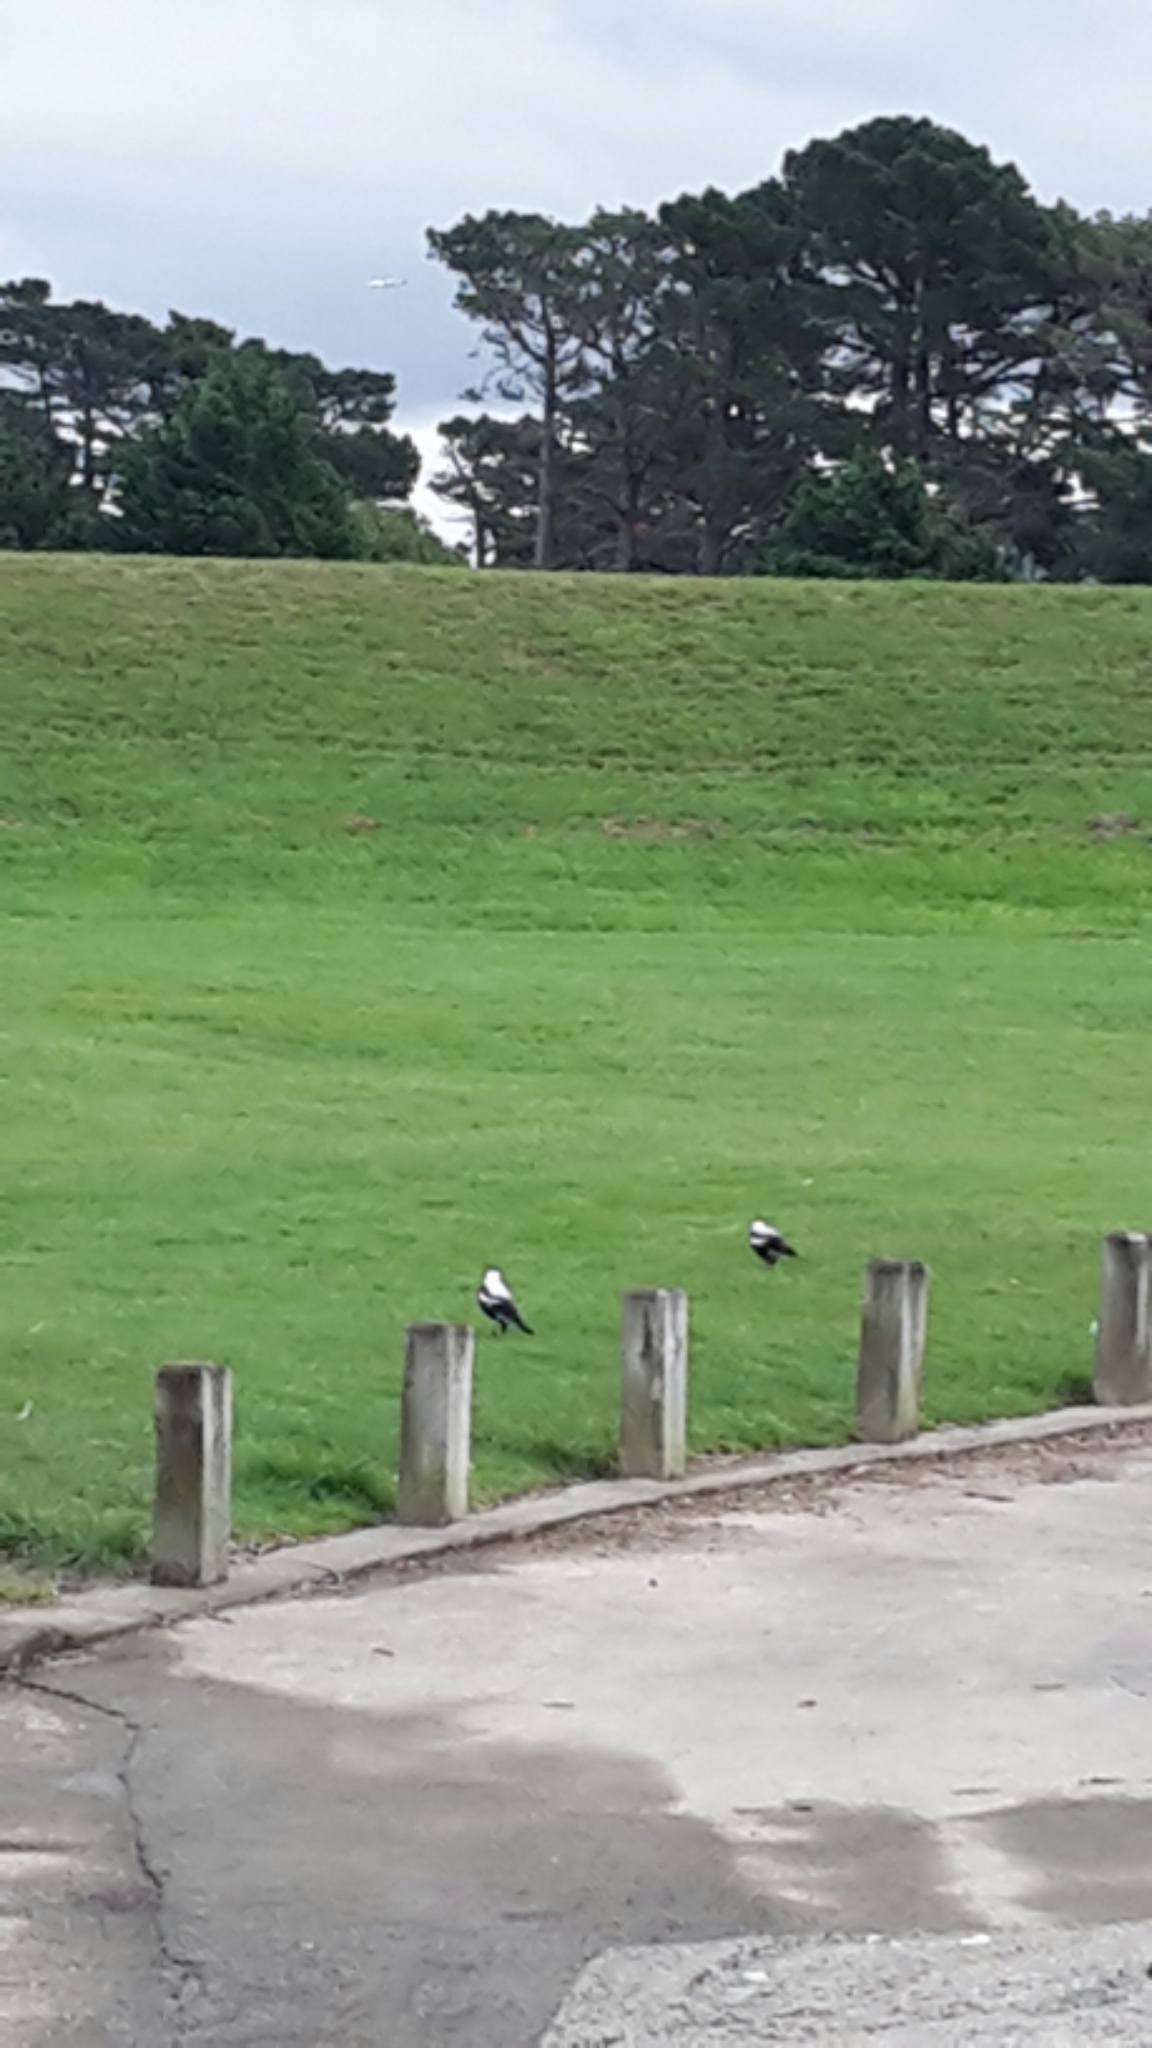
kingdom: Animalia
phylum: Chordata
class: Aves
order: Passeriformes
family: Cracticidae
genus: Gymnorhina
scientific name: Gymnorhina tibicen
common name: Australian magpie
